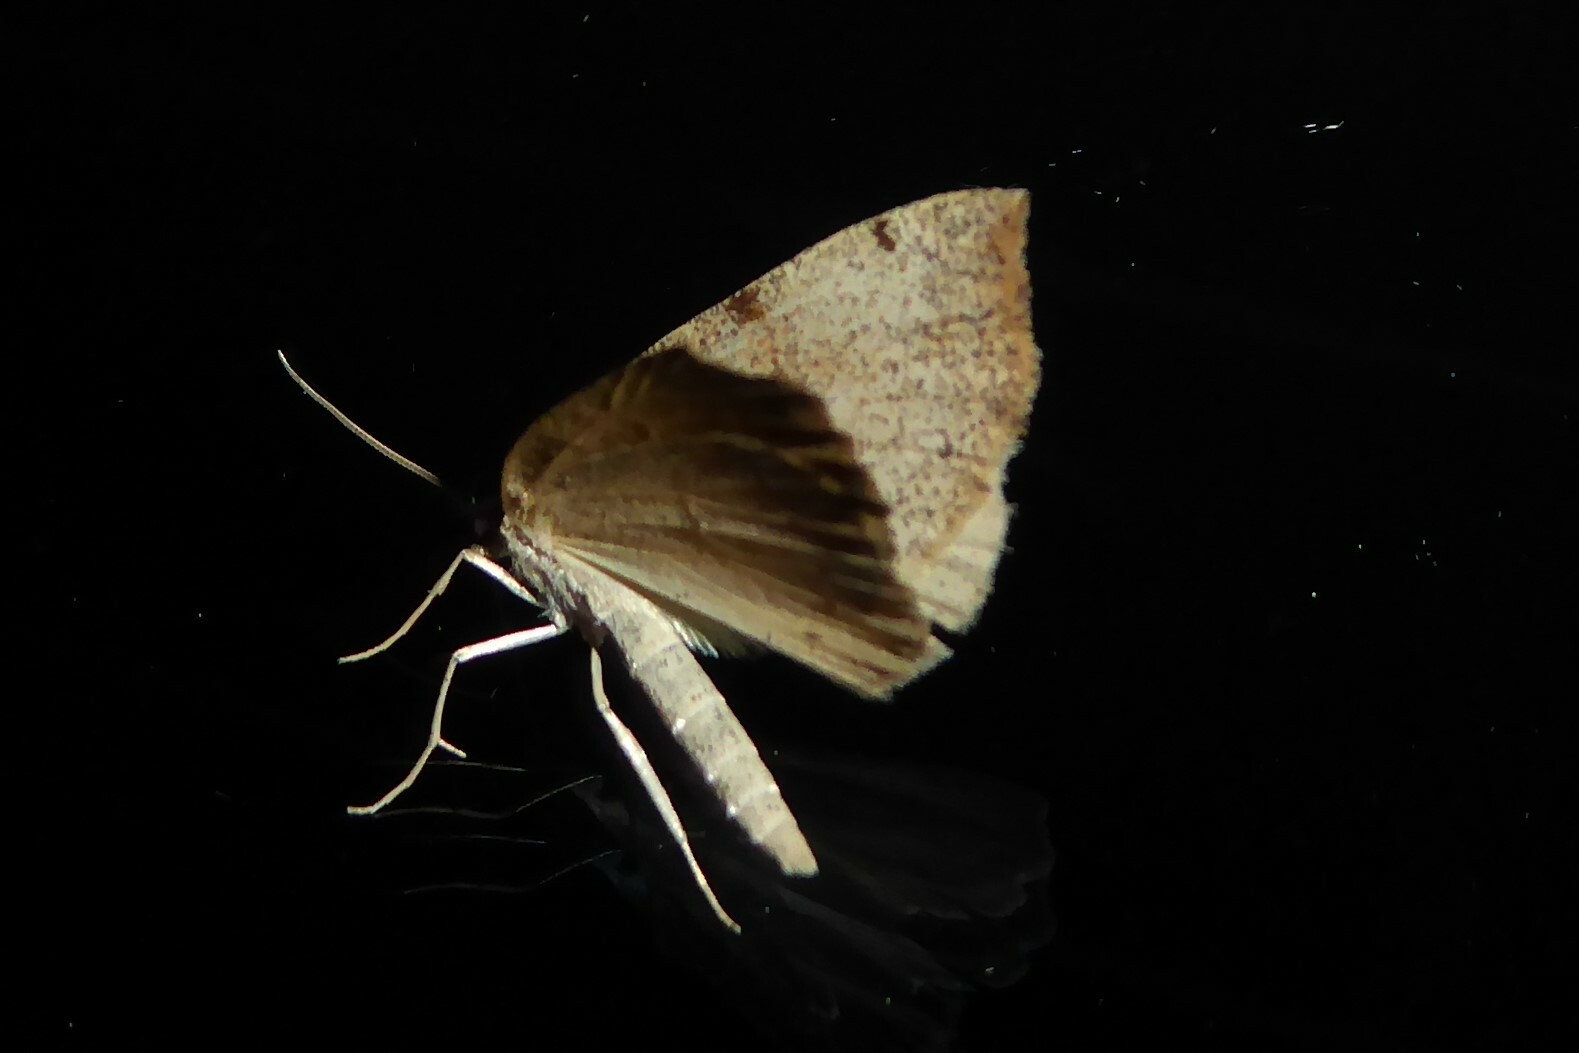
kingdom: Animalia
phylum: Arthropoda
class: Insecta
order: Lepidoptera
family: Geometridae
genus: Sestra
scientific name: Sestra flexata
